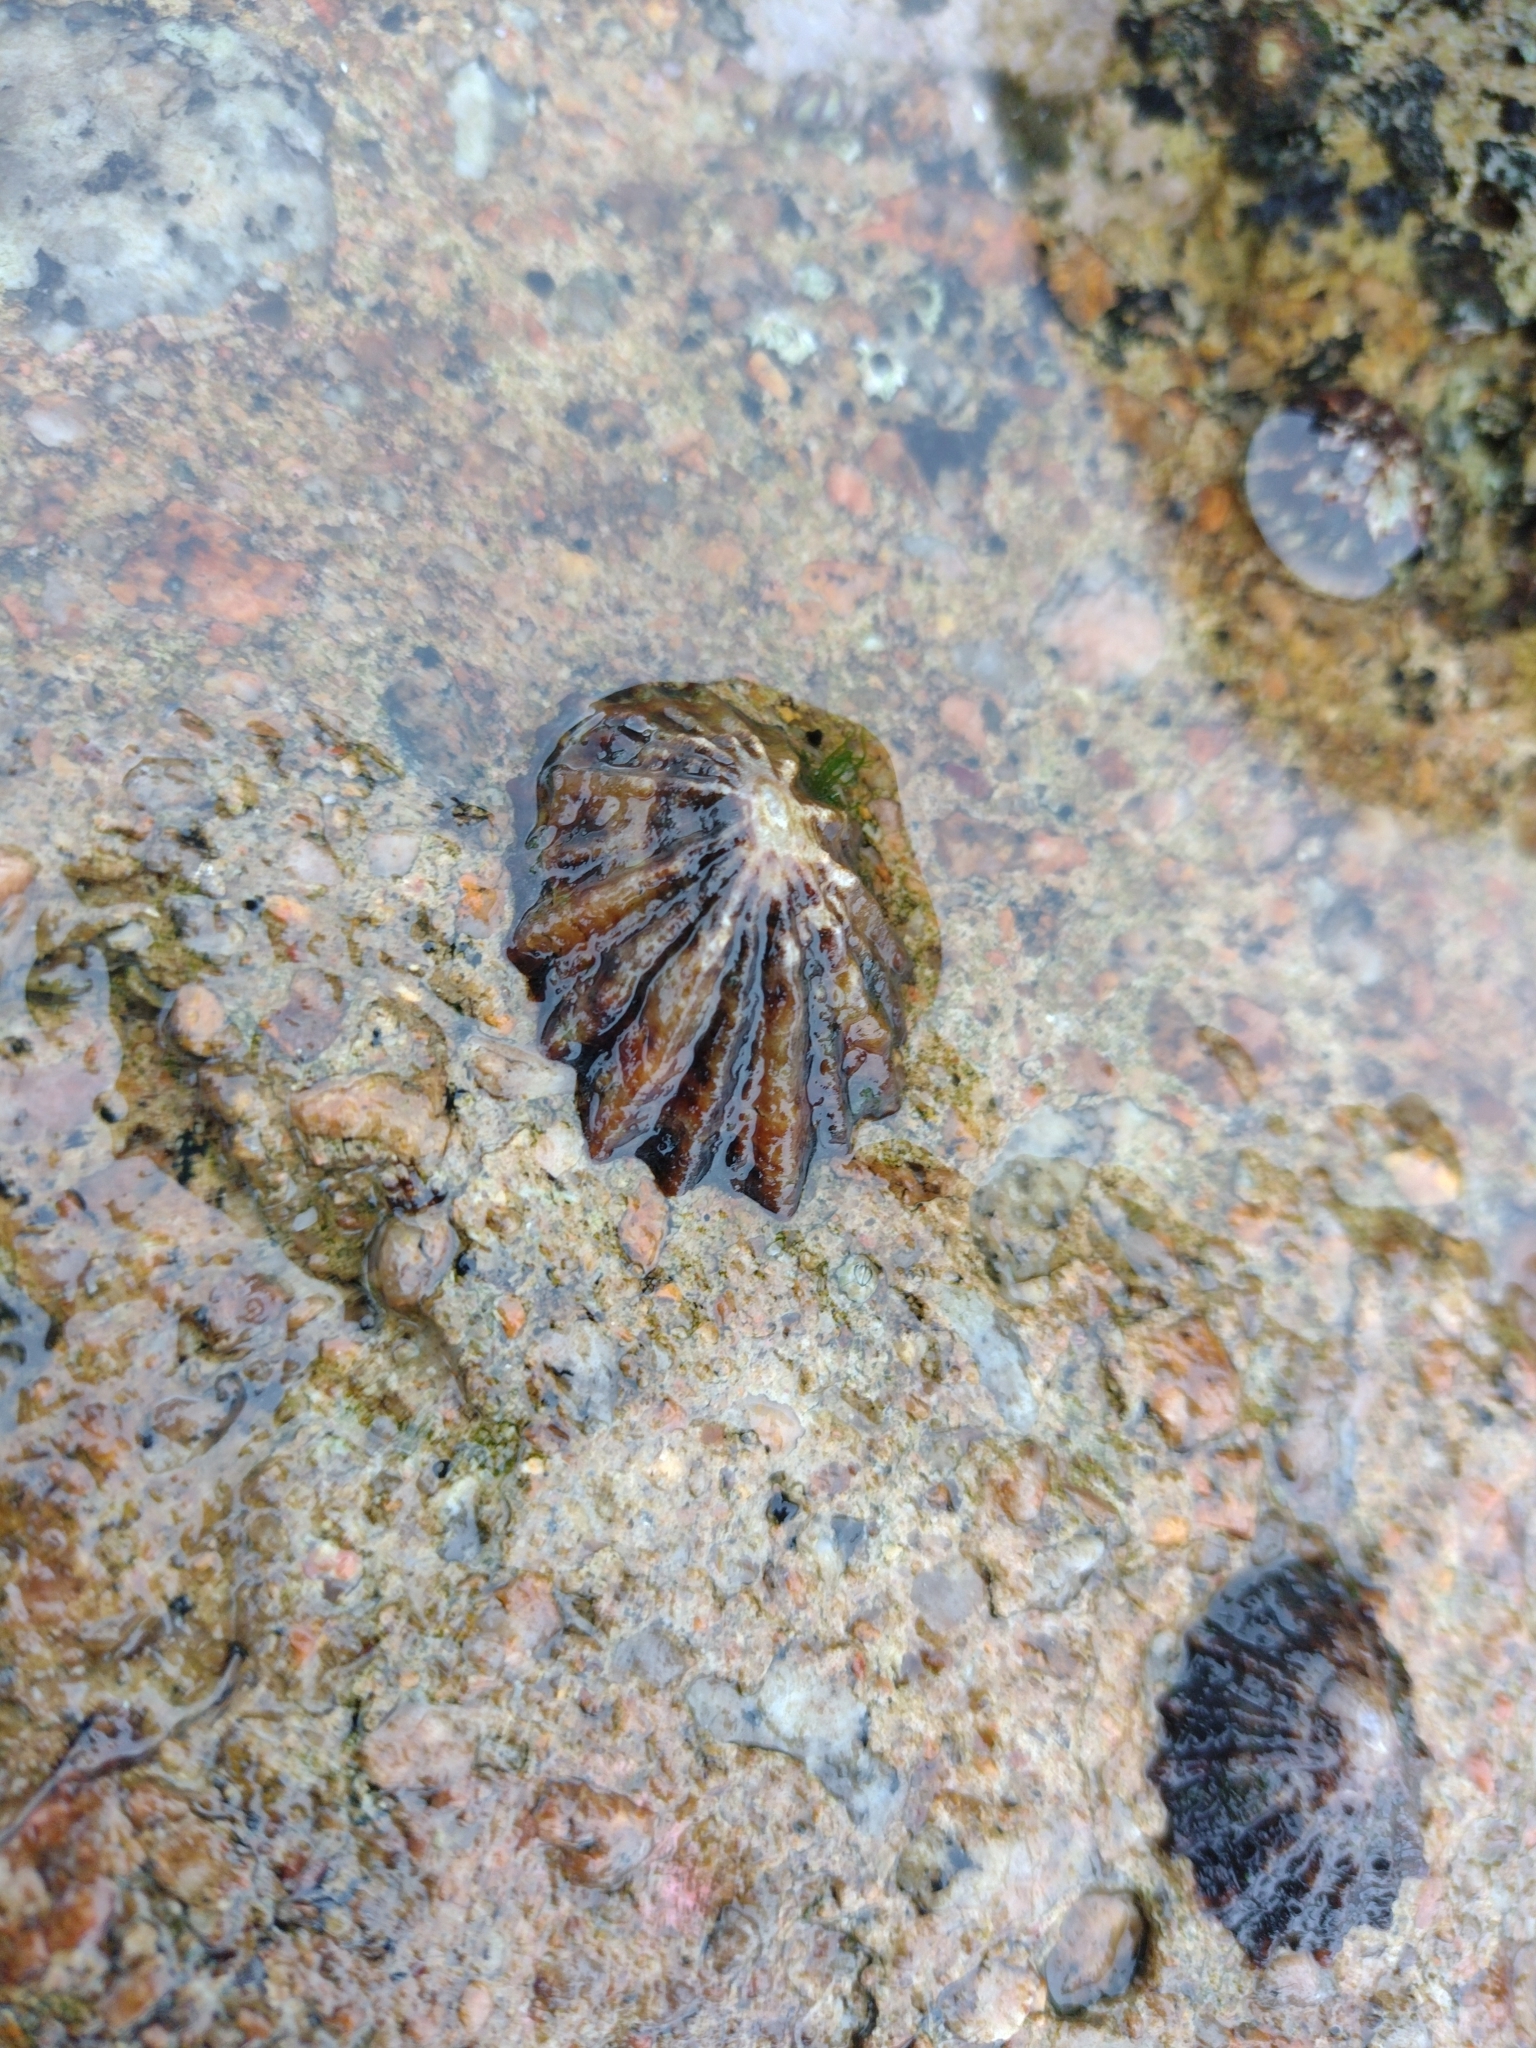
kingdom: Animalia
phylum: Mollusca
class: Gastropoda
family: Patellidae
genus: Patella
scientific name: Patella
